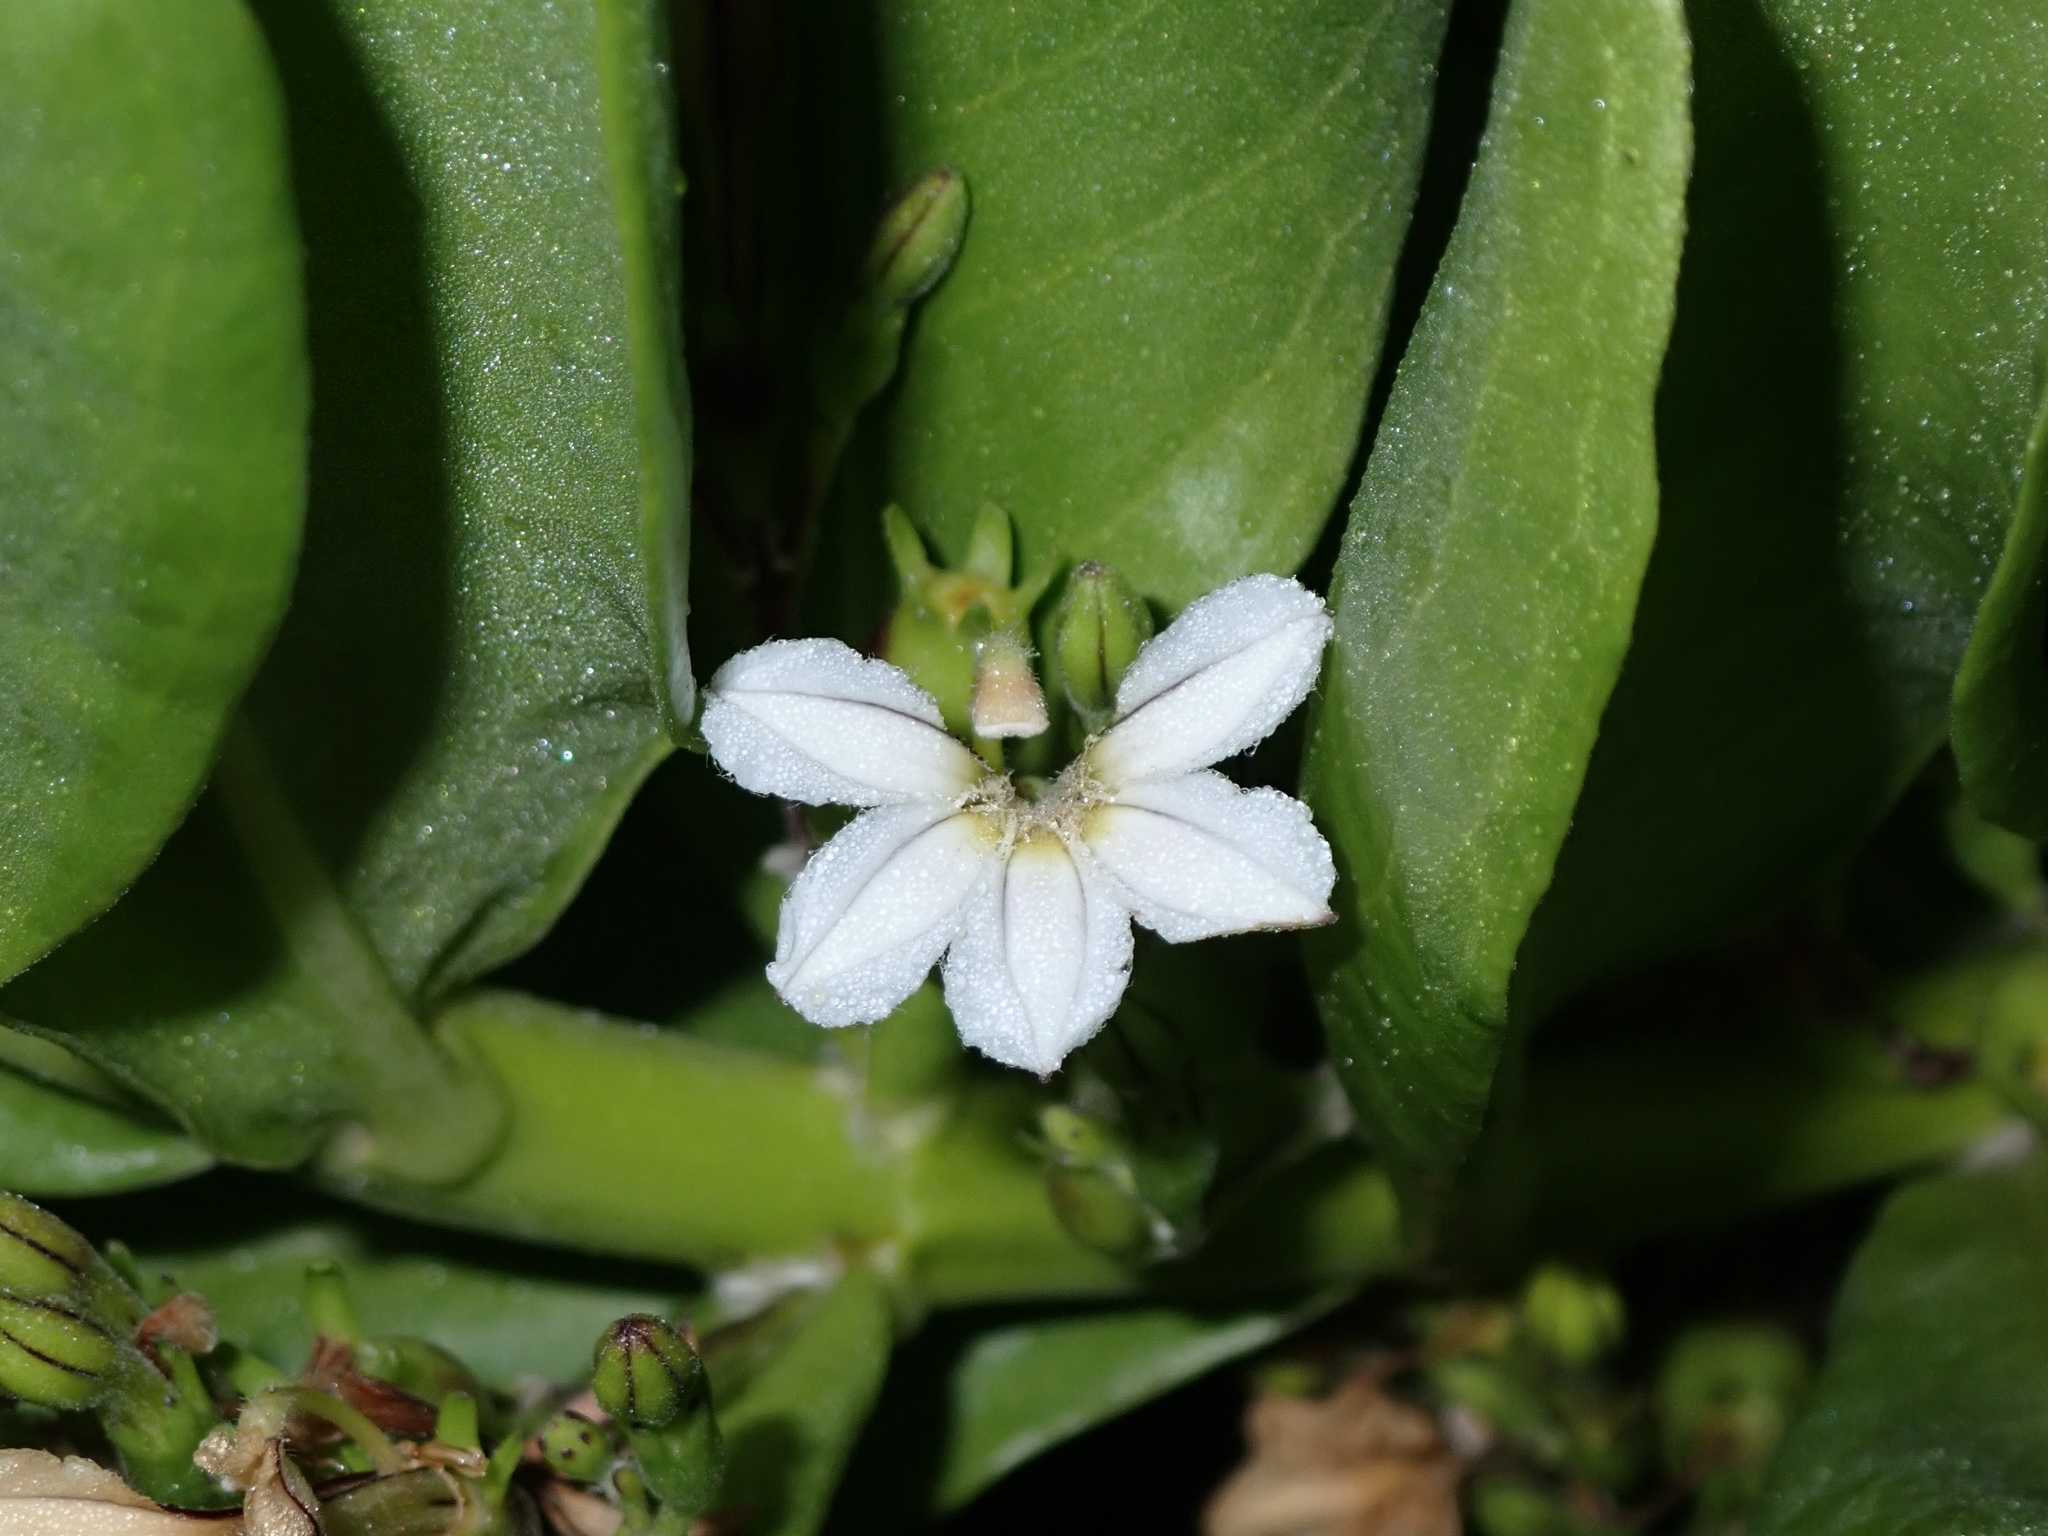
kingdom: Plantae
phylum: Tracheophyta
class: Magnoliopsida
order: Asterales
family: Goodeniaceae
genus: Scaevola
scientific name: Scaevola taccada
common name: Sea lettucetree
